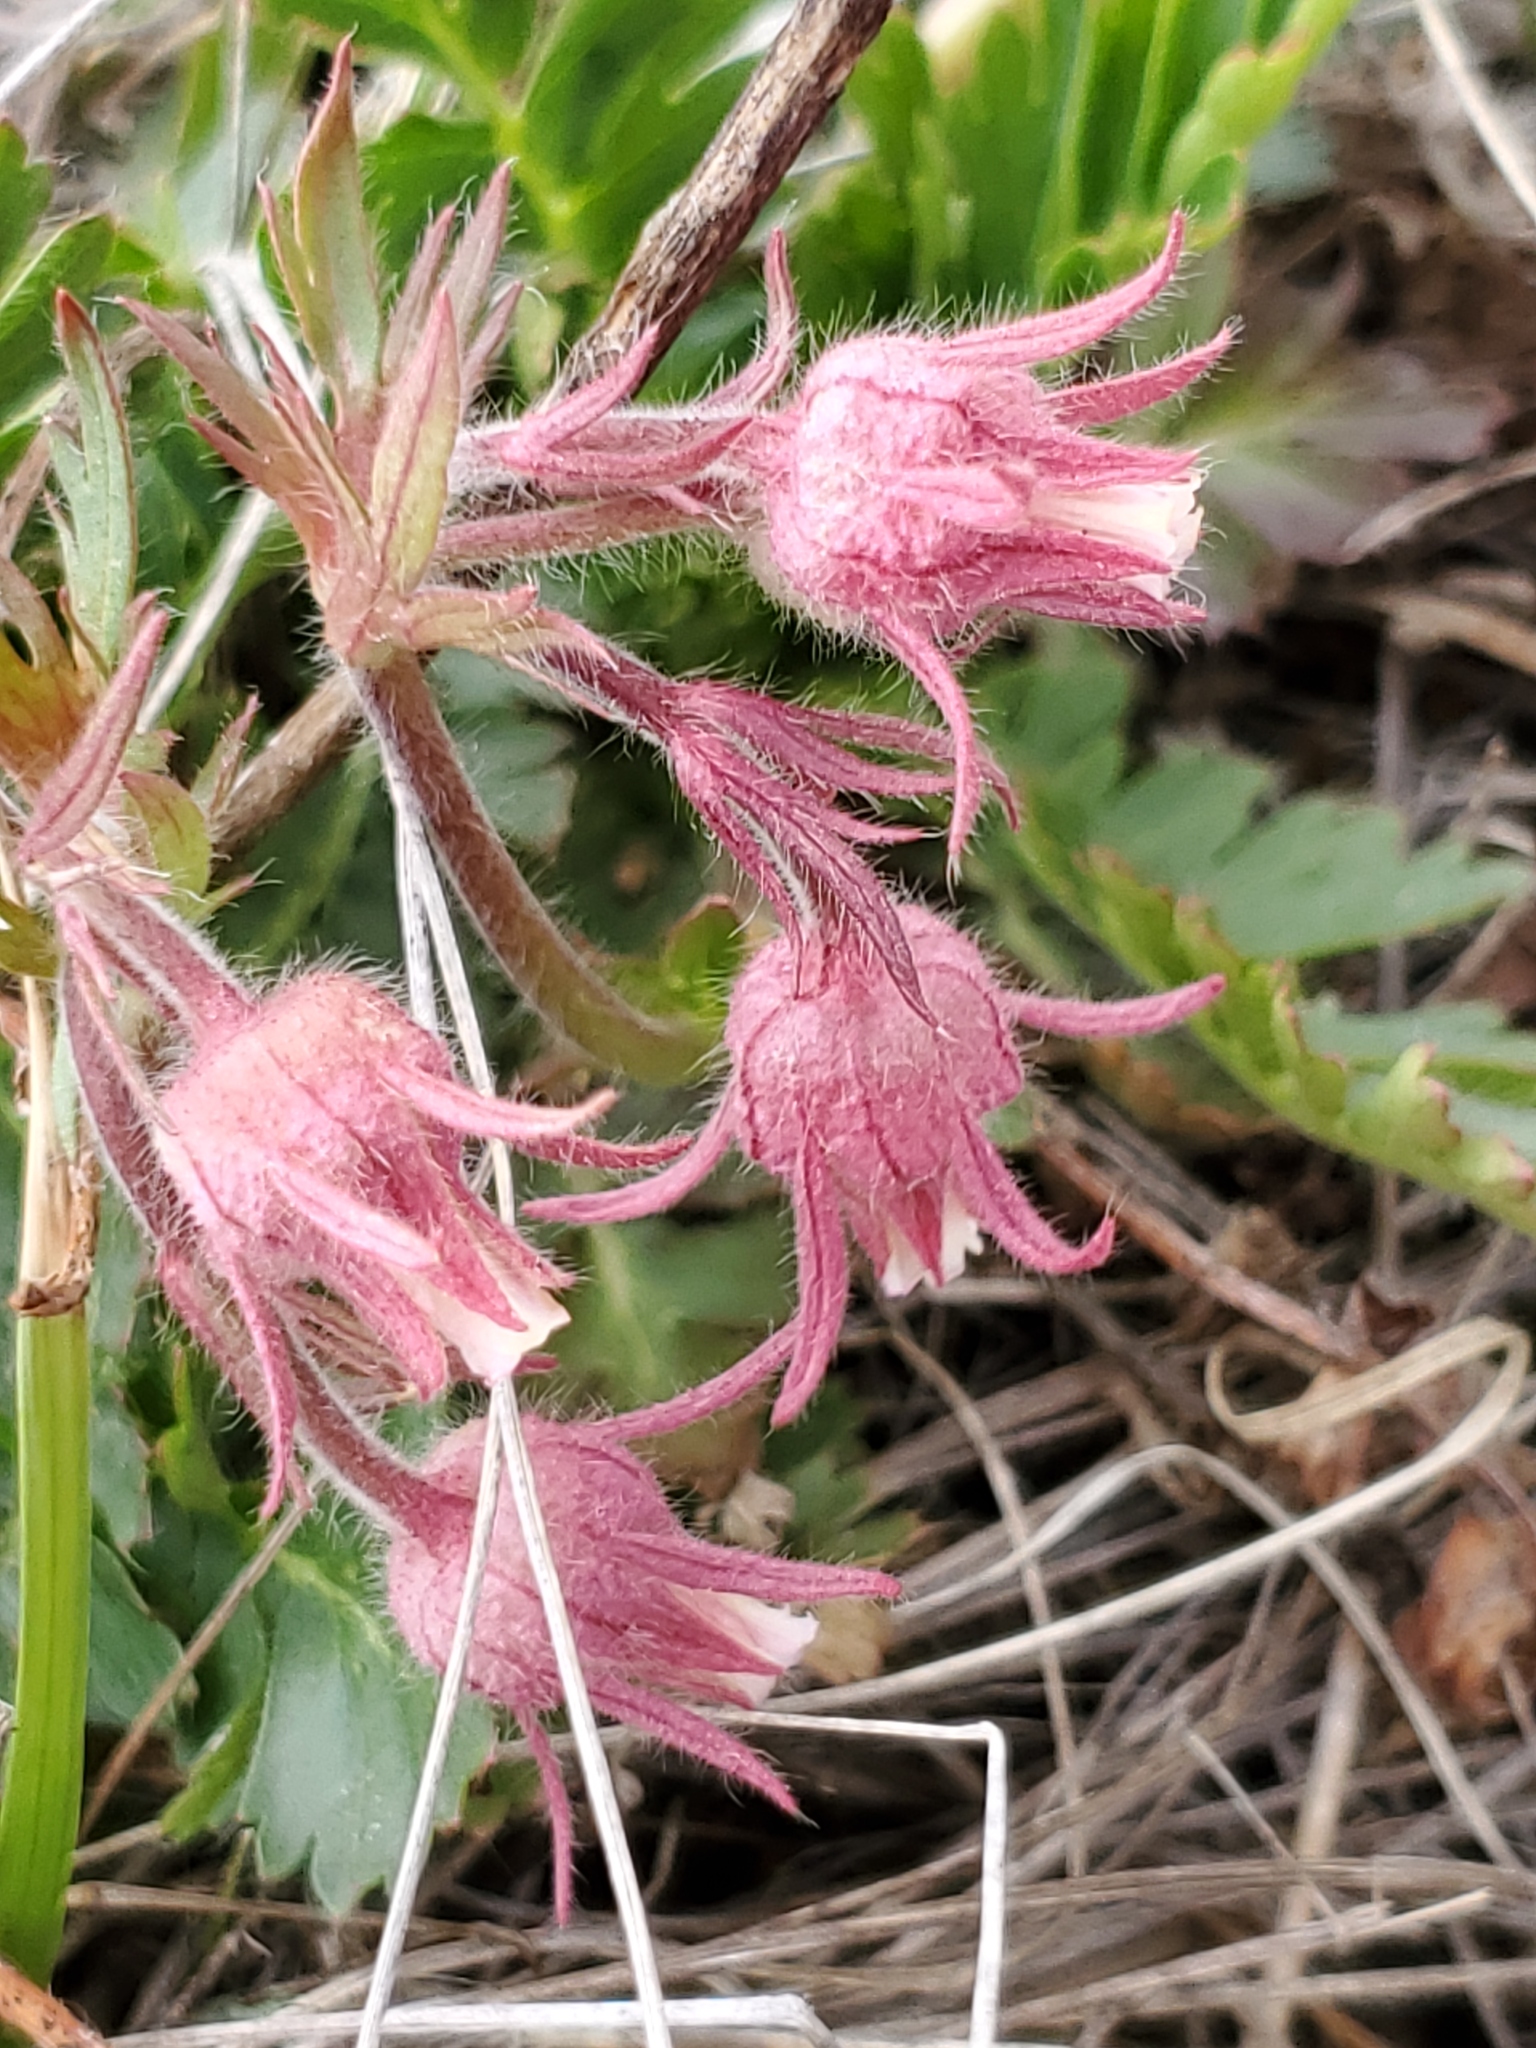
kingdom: Plantae
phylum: Tracheophyta
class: Magnoliopsida
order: Rosales
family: Rosaceae
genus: Geum
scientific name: Geum triflorum
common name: Old man's whiskers
